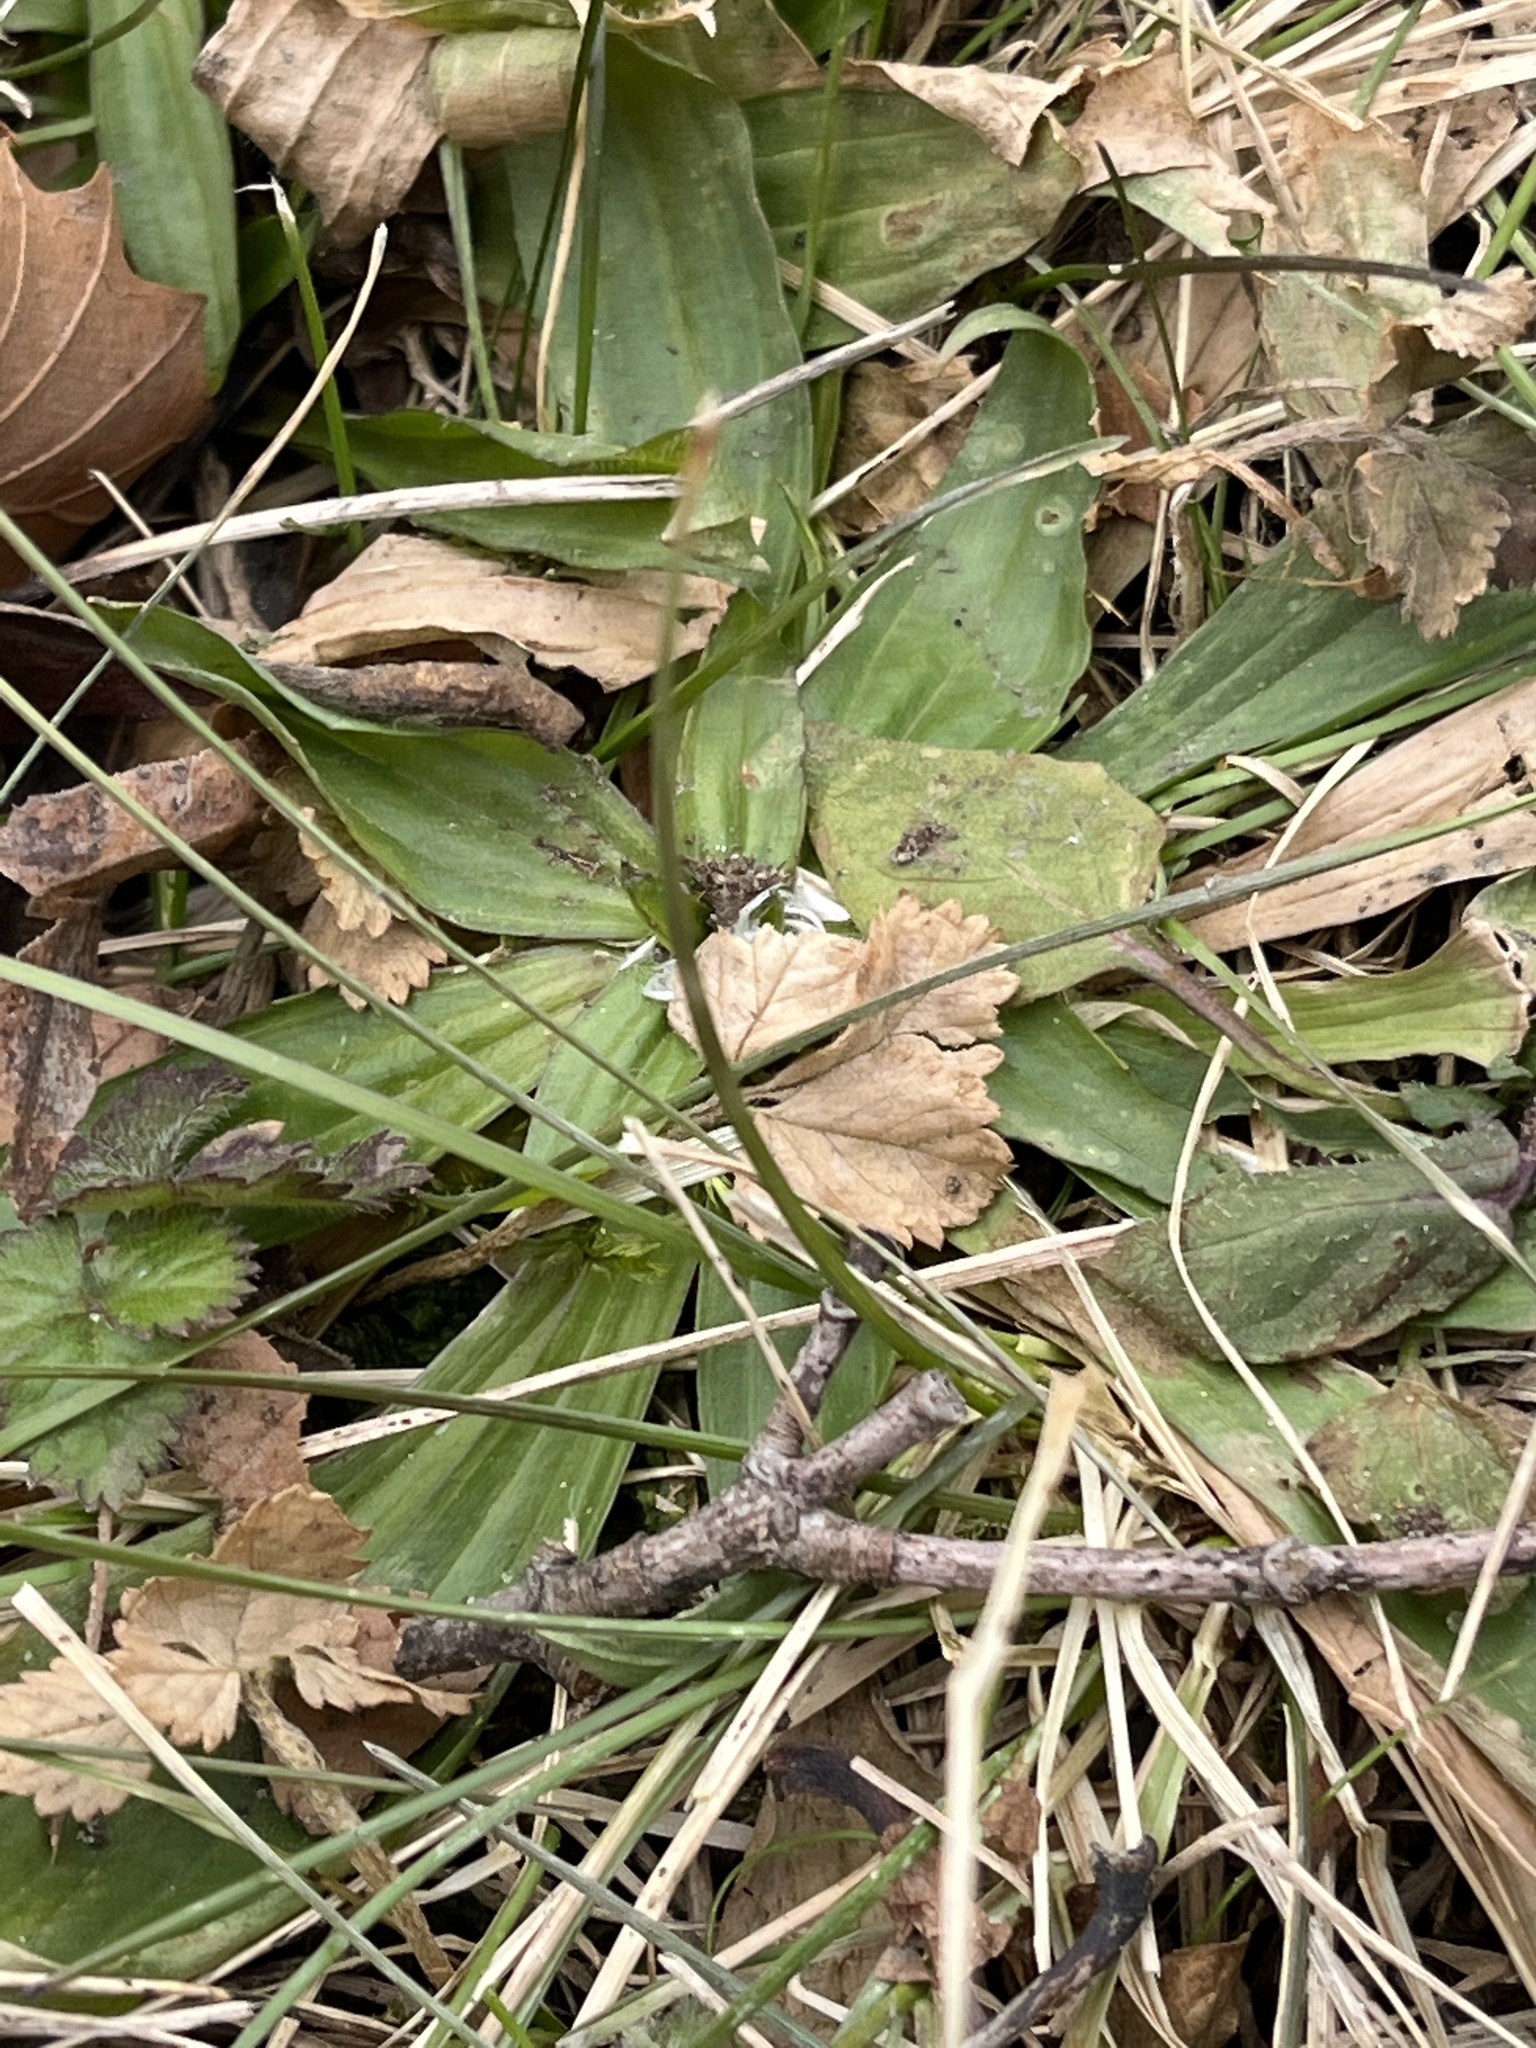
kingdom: Plantae
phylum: Tracheophyta
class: Magnoliopsida
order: Lamiales
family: Plantaginaceae
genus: Plantago
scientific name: Plantago lanceolata
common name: Ribwort plantain
